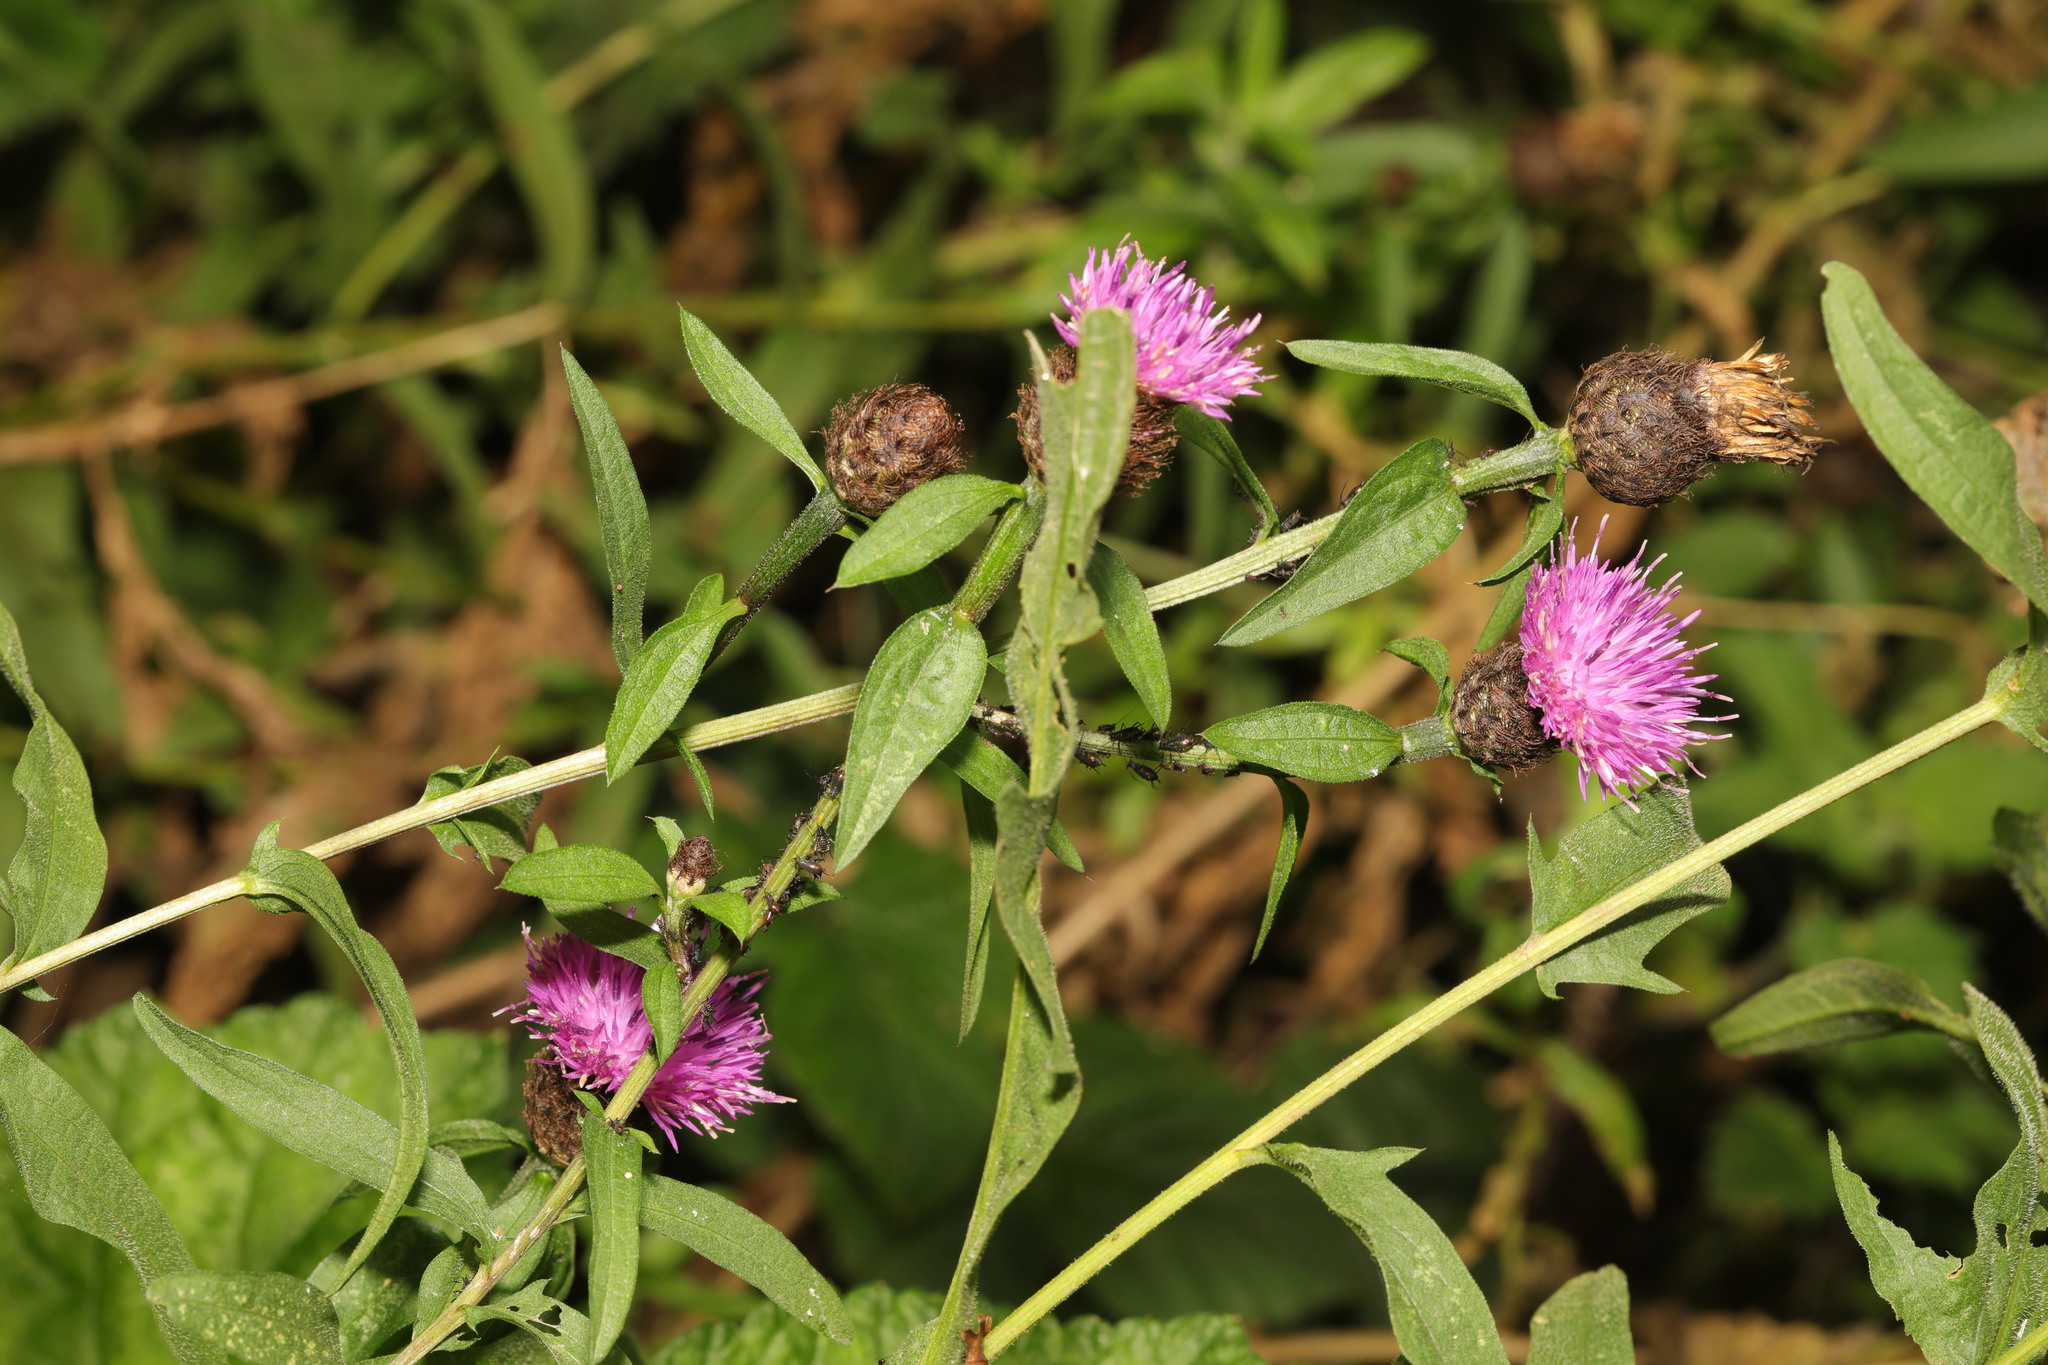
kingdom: Plantae
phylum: Tracheophyta
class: Magnoliopsida
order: Asterales
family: Asteraceae
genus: Centaurea
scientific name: Centaurea nigra
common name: Lesser knapweed
